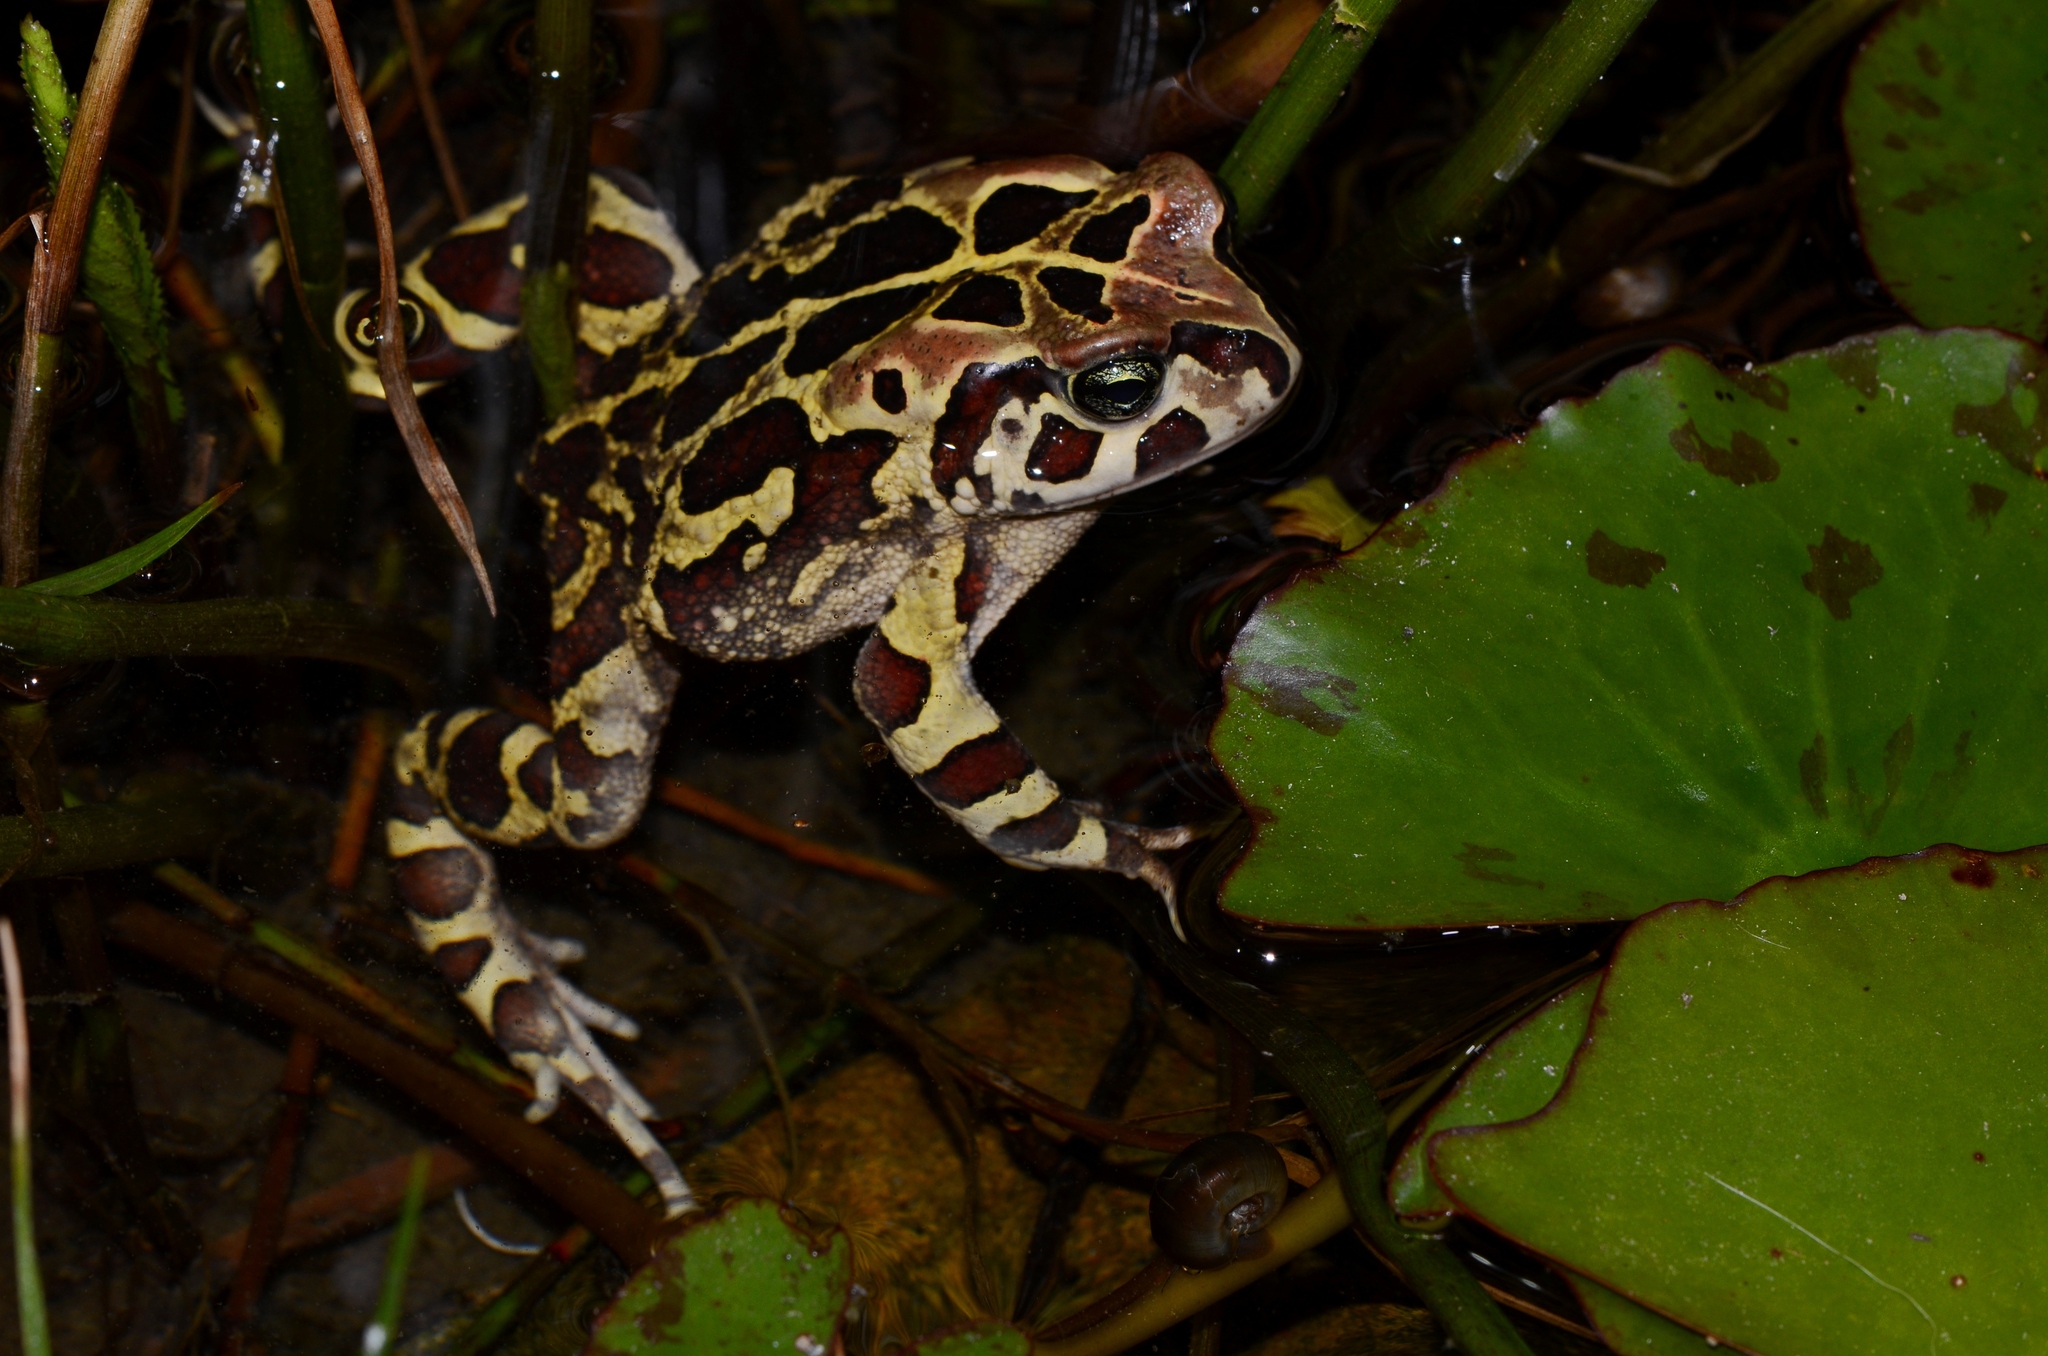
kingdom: Animalia
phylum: Chordata
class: Amphibia
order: Anura
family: Bufonidae
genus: Sclerophrys
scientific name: Sclerophrys pantherina
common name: Panther toad
